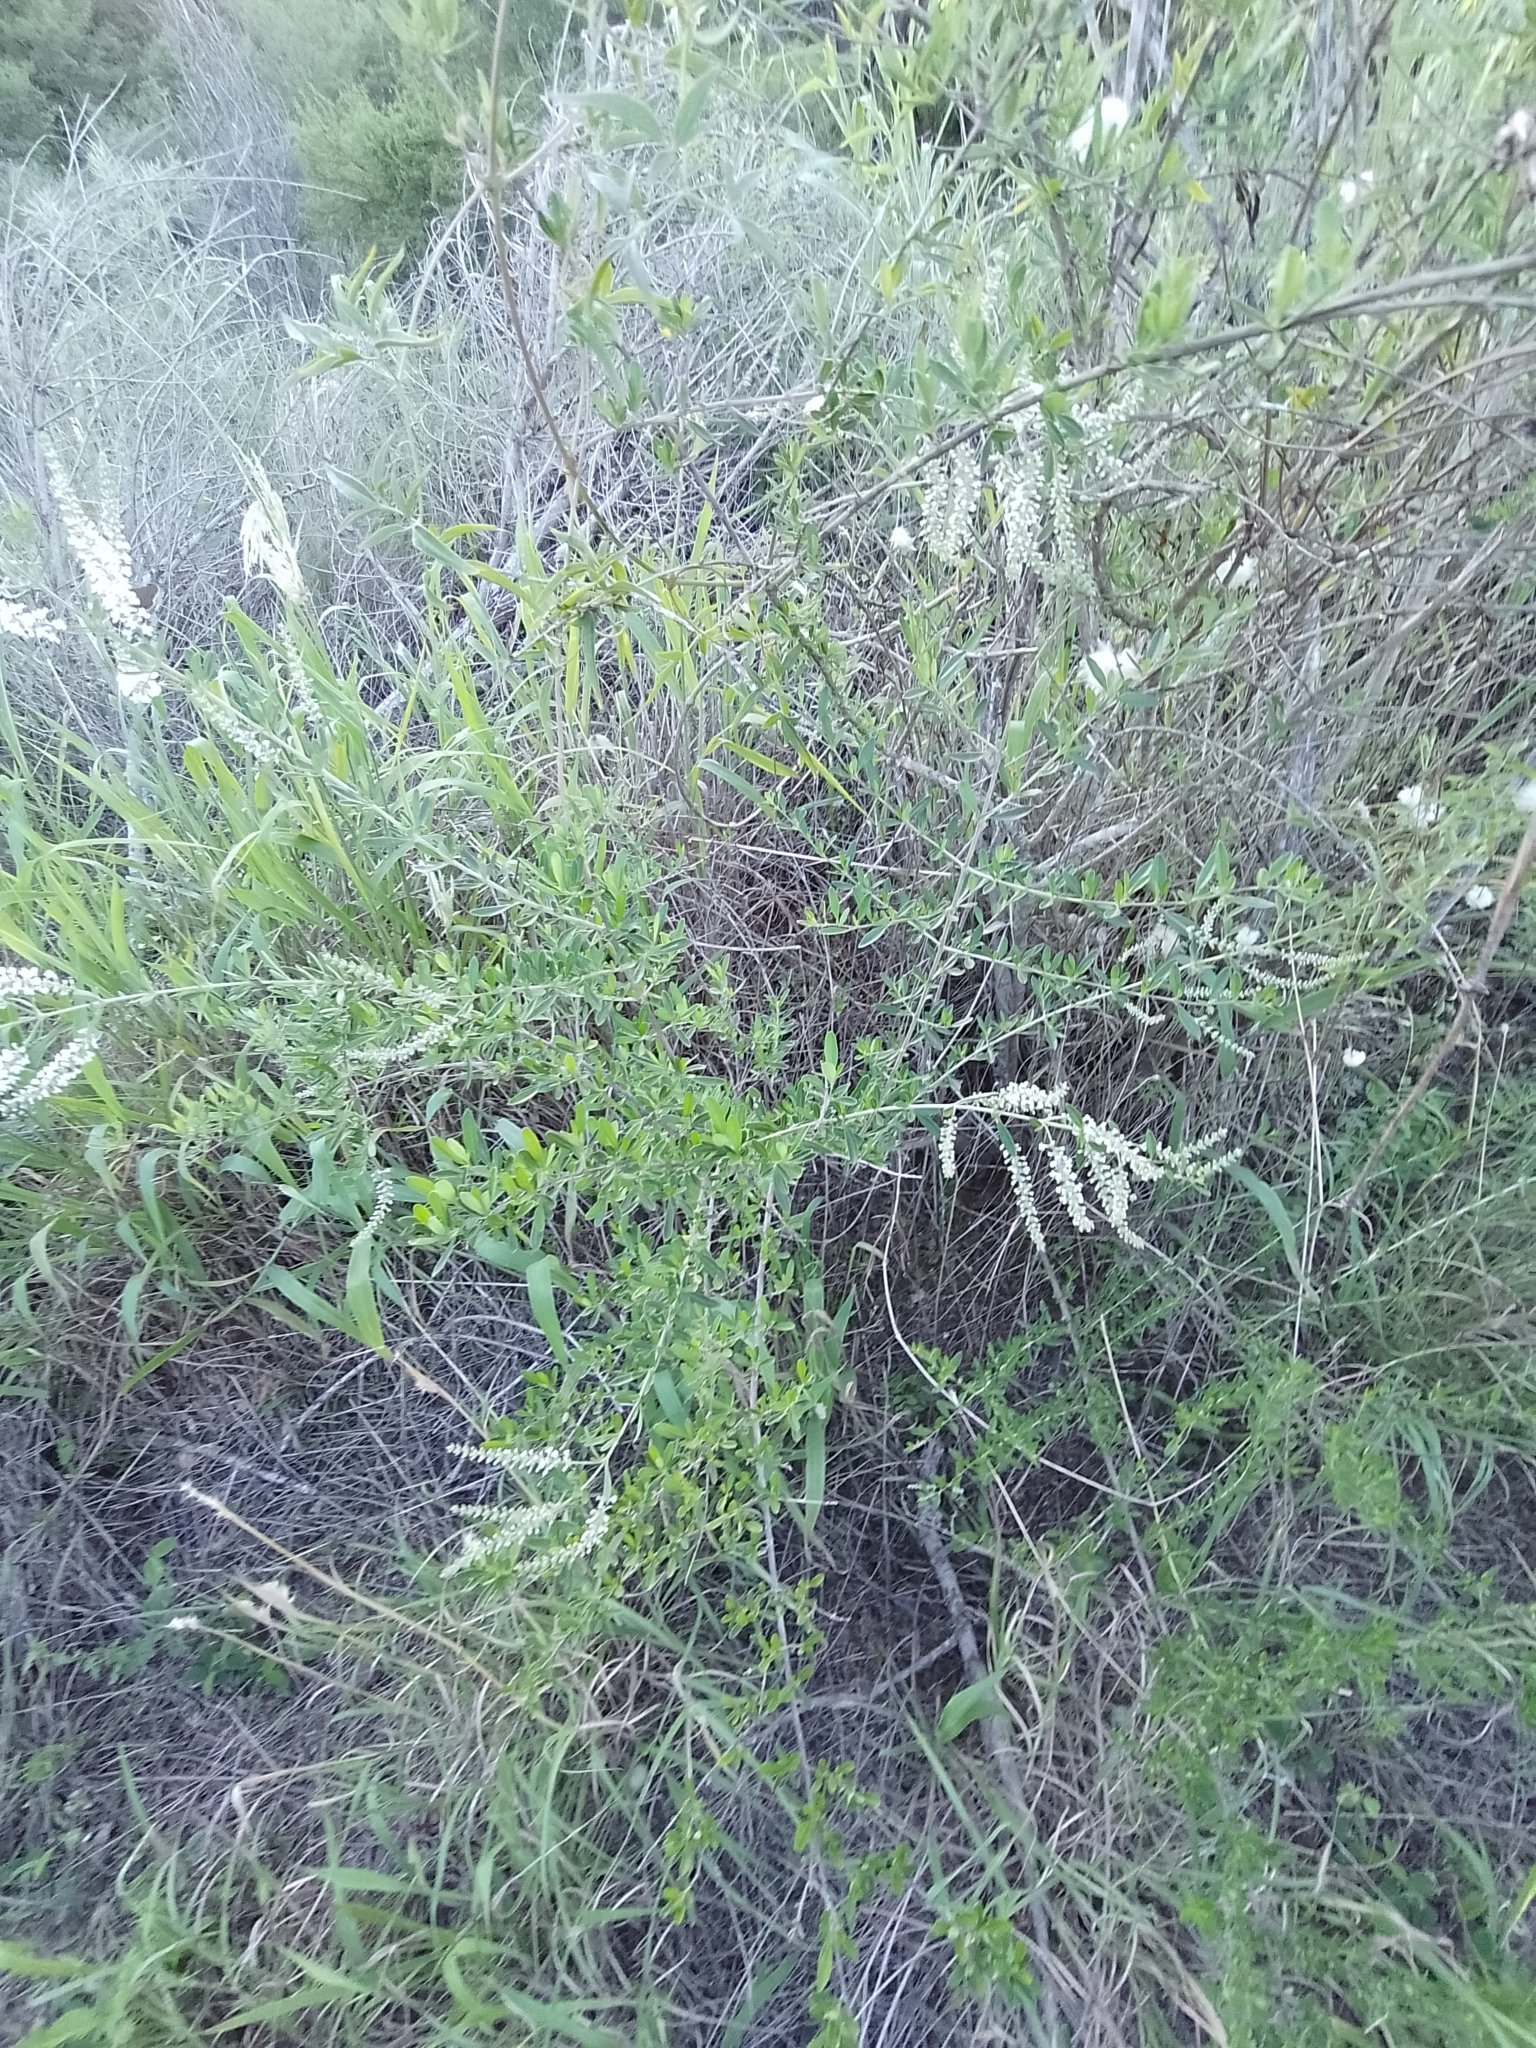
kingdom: Plantae
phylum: Tracheophyta
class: Magnoliopsida
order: Lamiales
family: Verbenaceae
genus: Aloysia
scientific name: Aloysia gratissima
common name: Common bee-brush
